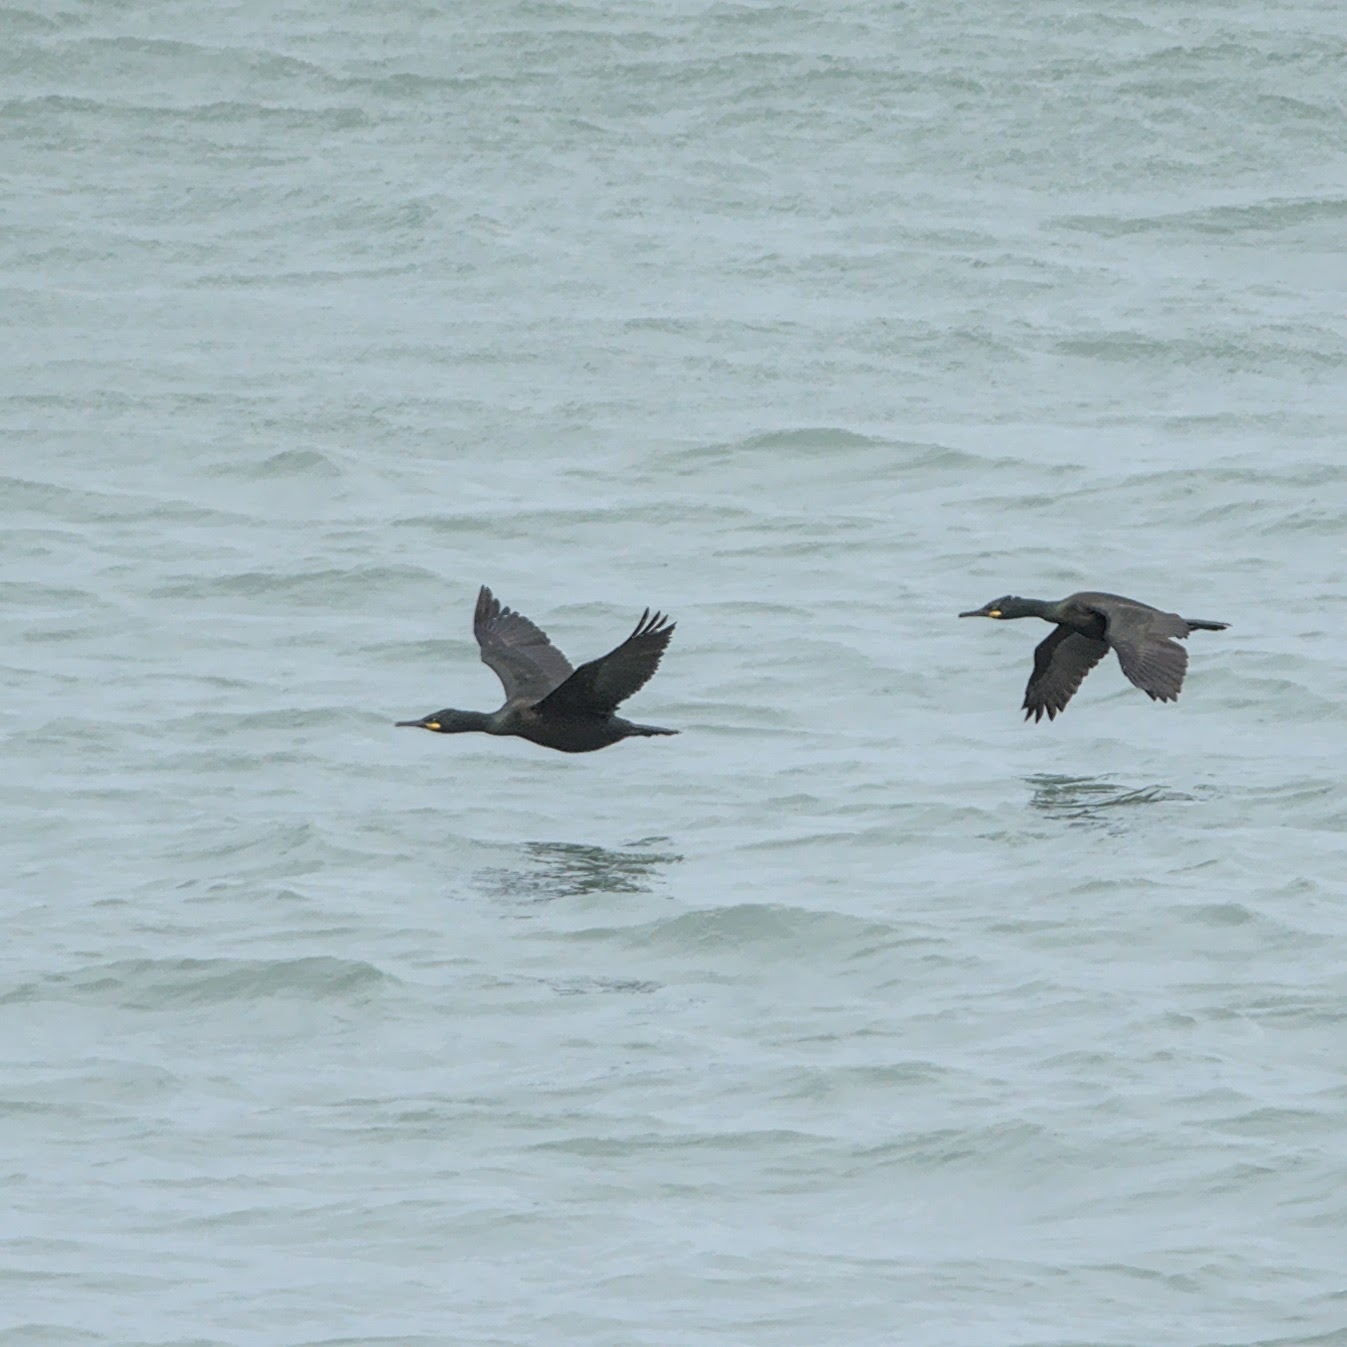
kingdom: Animalia
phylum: Chordata
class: Aves
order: Suliformes
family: Phalacrocoracidae
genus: Phalacrocorax
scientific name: Phalacrocorax aristotelis
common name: European shag
